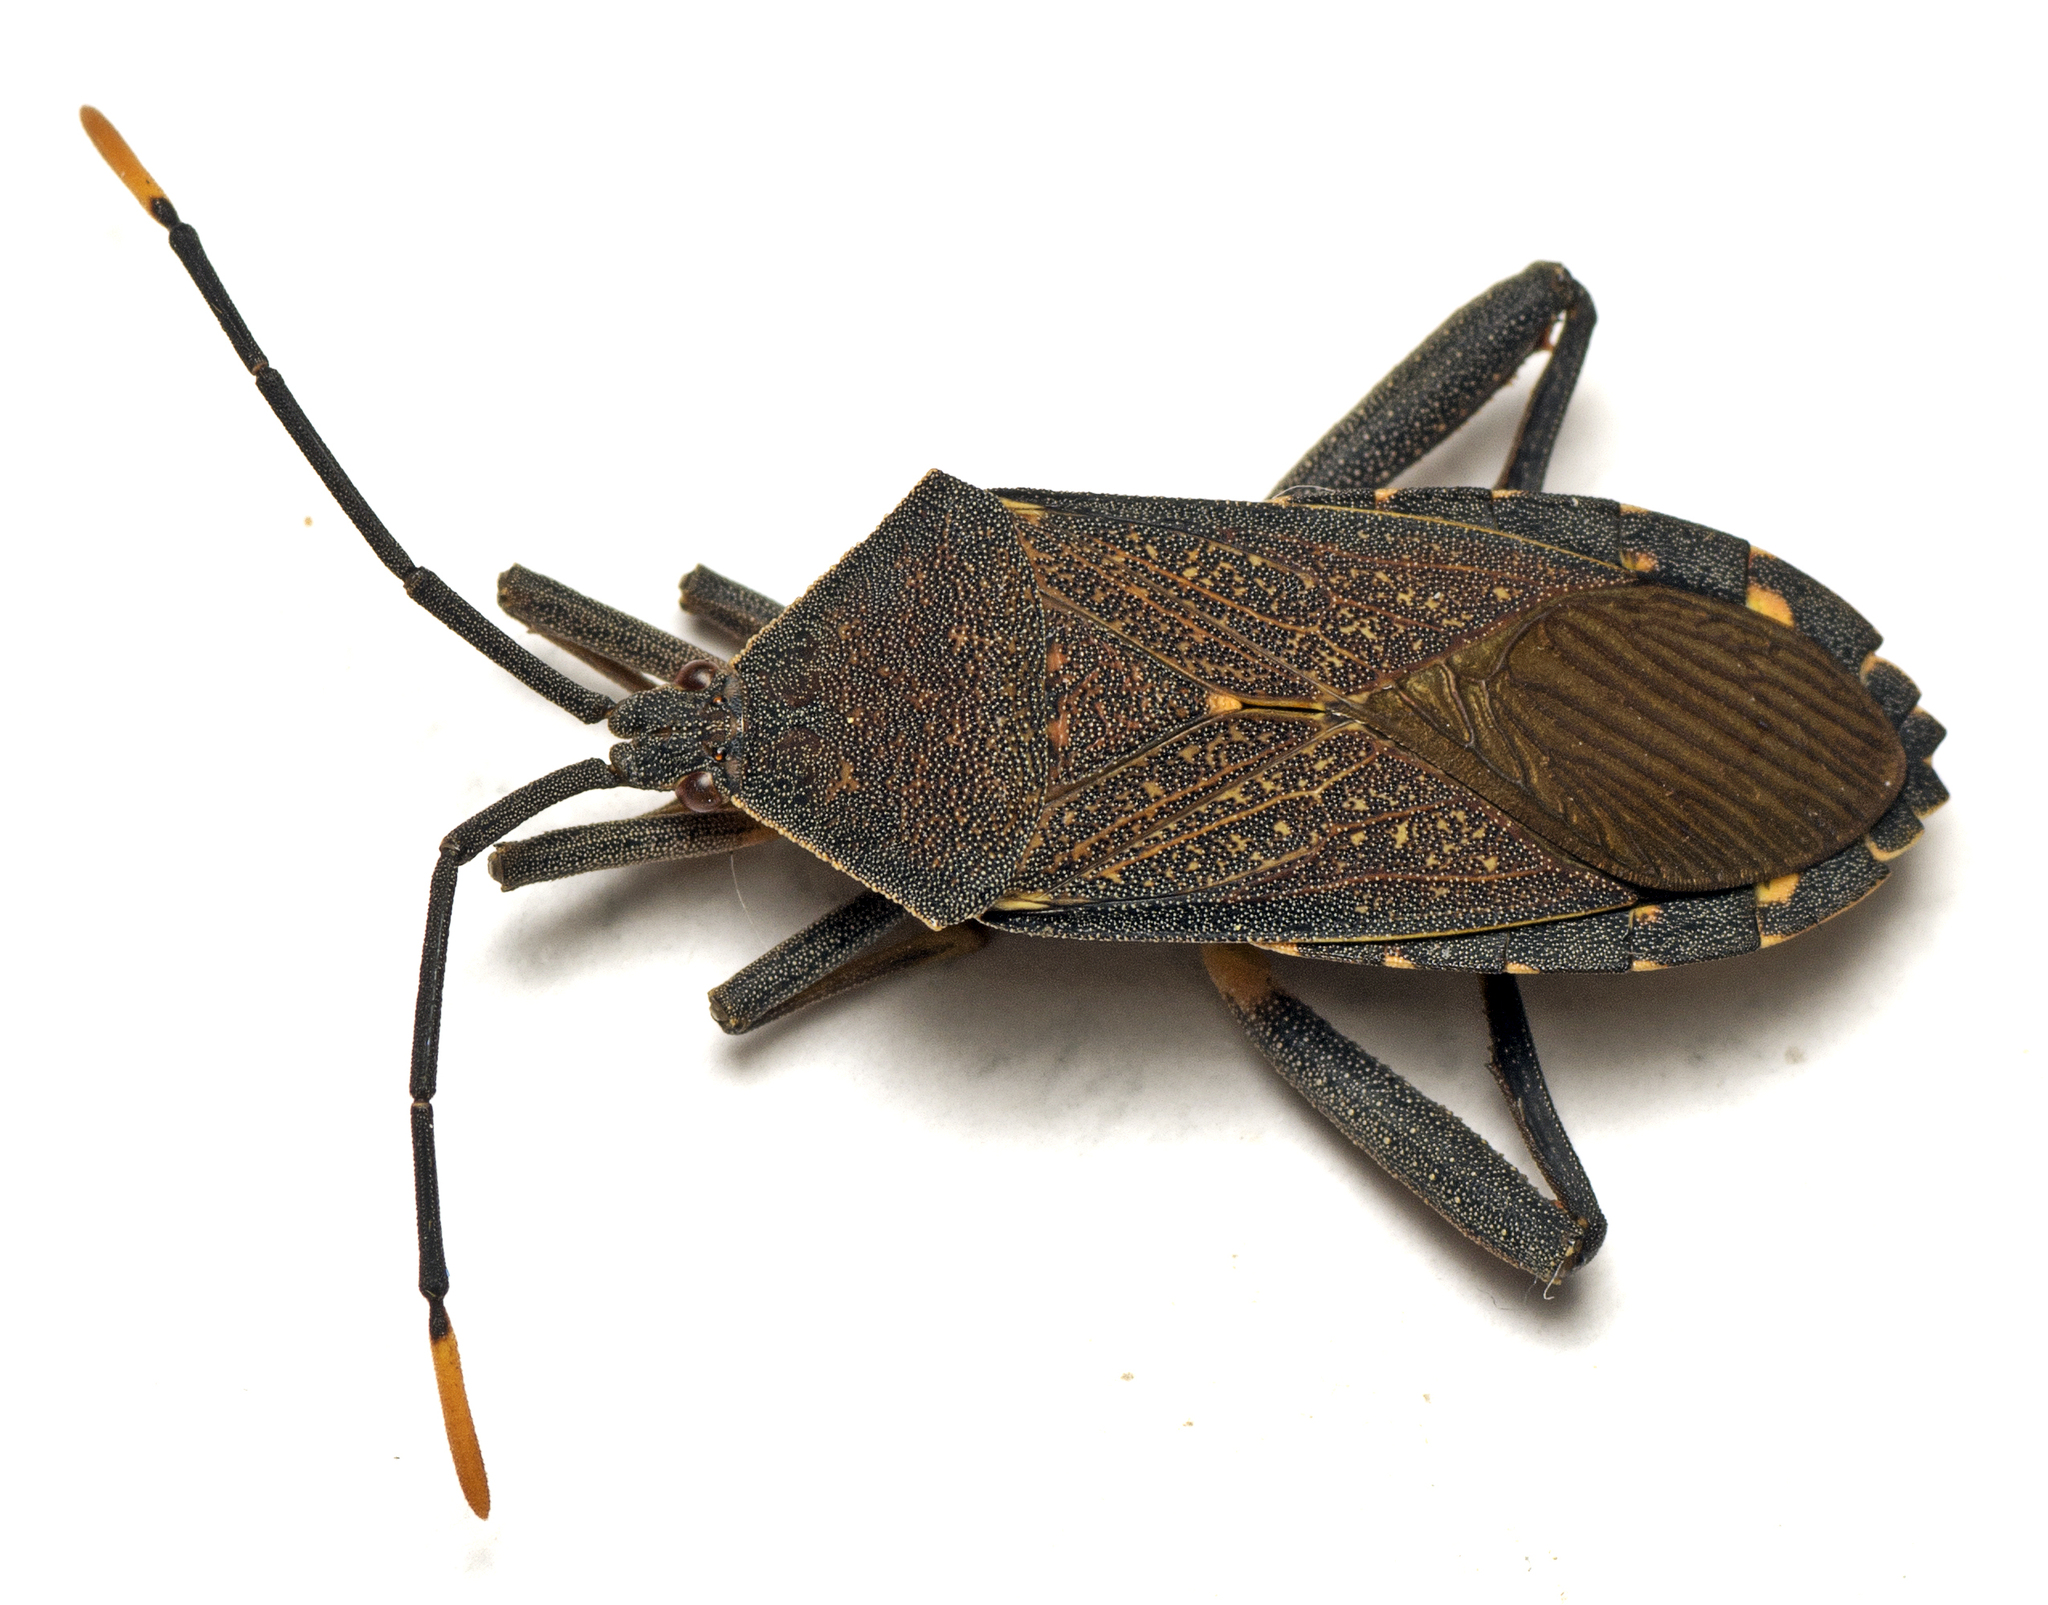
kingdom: Animalia
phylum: Arthropoda
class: Insecta
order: Hemiptera
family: Coreidae
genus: Amorbus
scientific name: Amorbus atomarius
